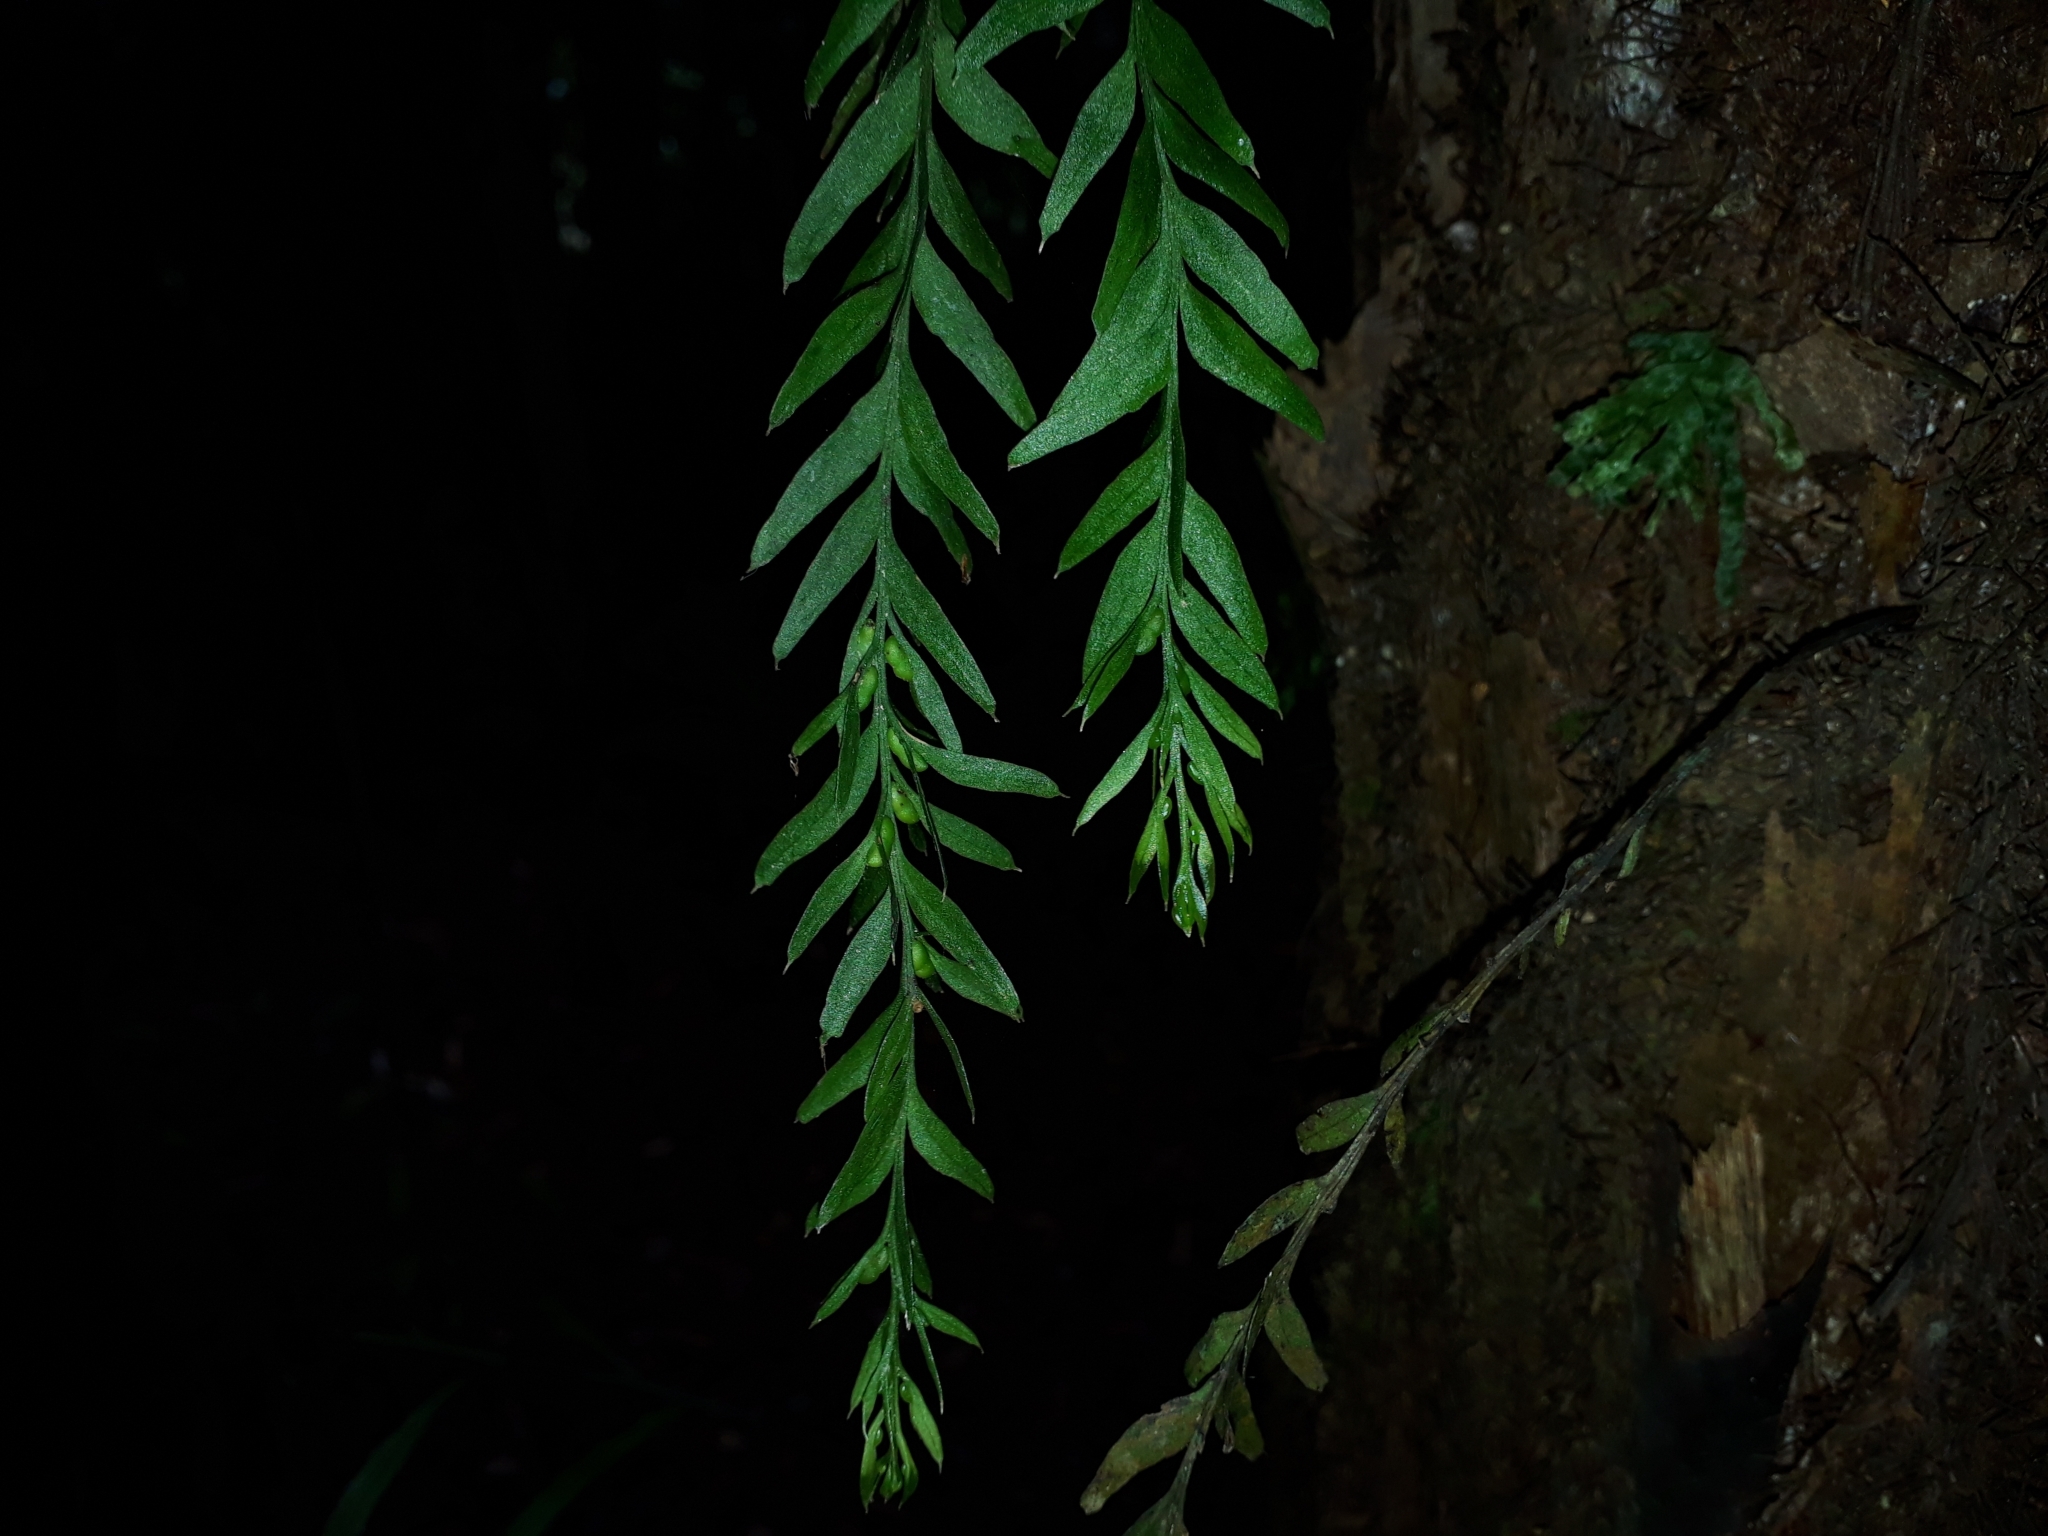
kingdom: Plantae
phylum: Tracheophyta
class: Polypodiopsida
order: Psilotales
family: Psilotaceae
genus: Tmesipteris
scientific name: Tmesipteris elongata
